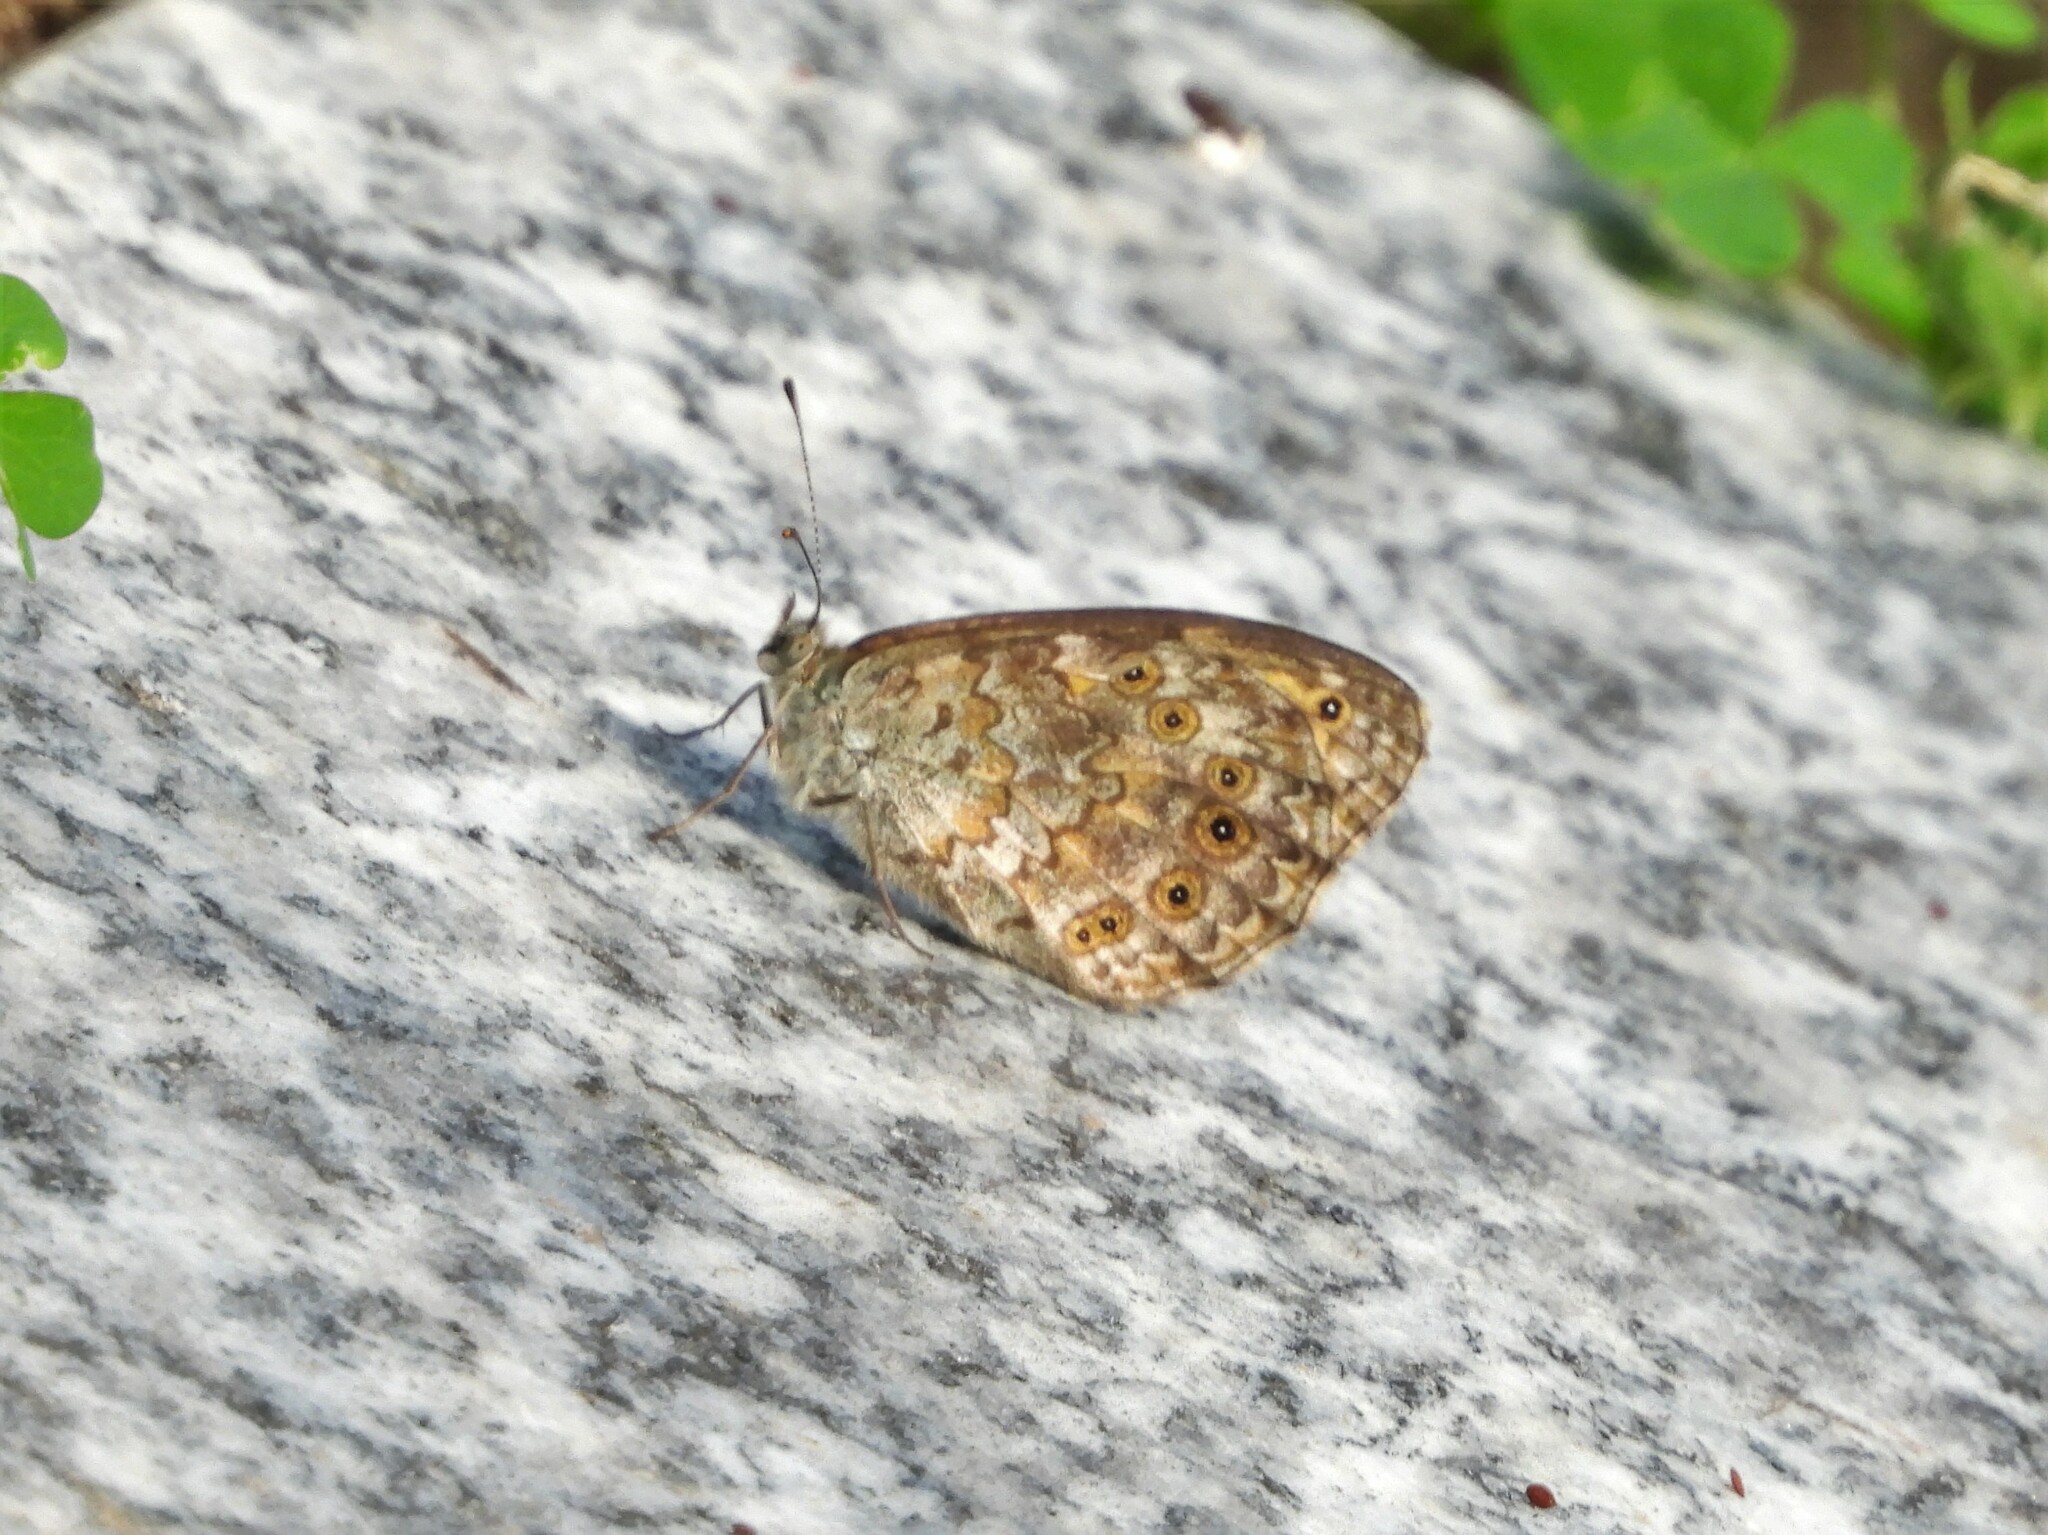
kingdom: Animalia
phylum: Arthropoda
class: Insecta
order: Lepidoptera
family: Nymphalidae
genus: Pararge
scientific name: Pararge Lasiommata megera
